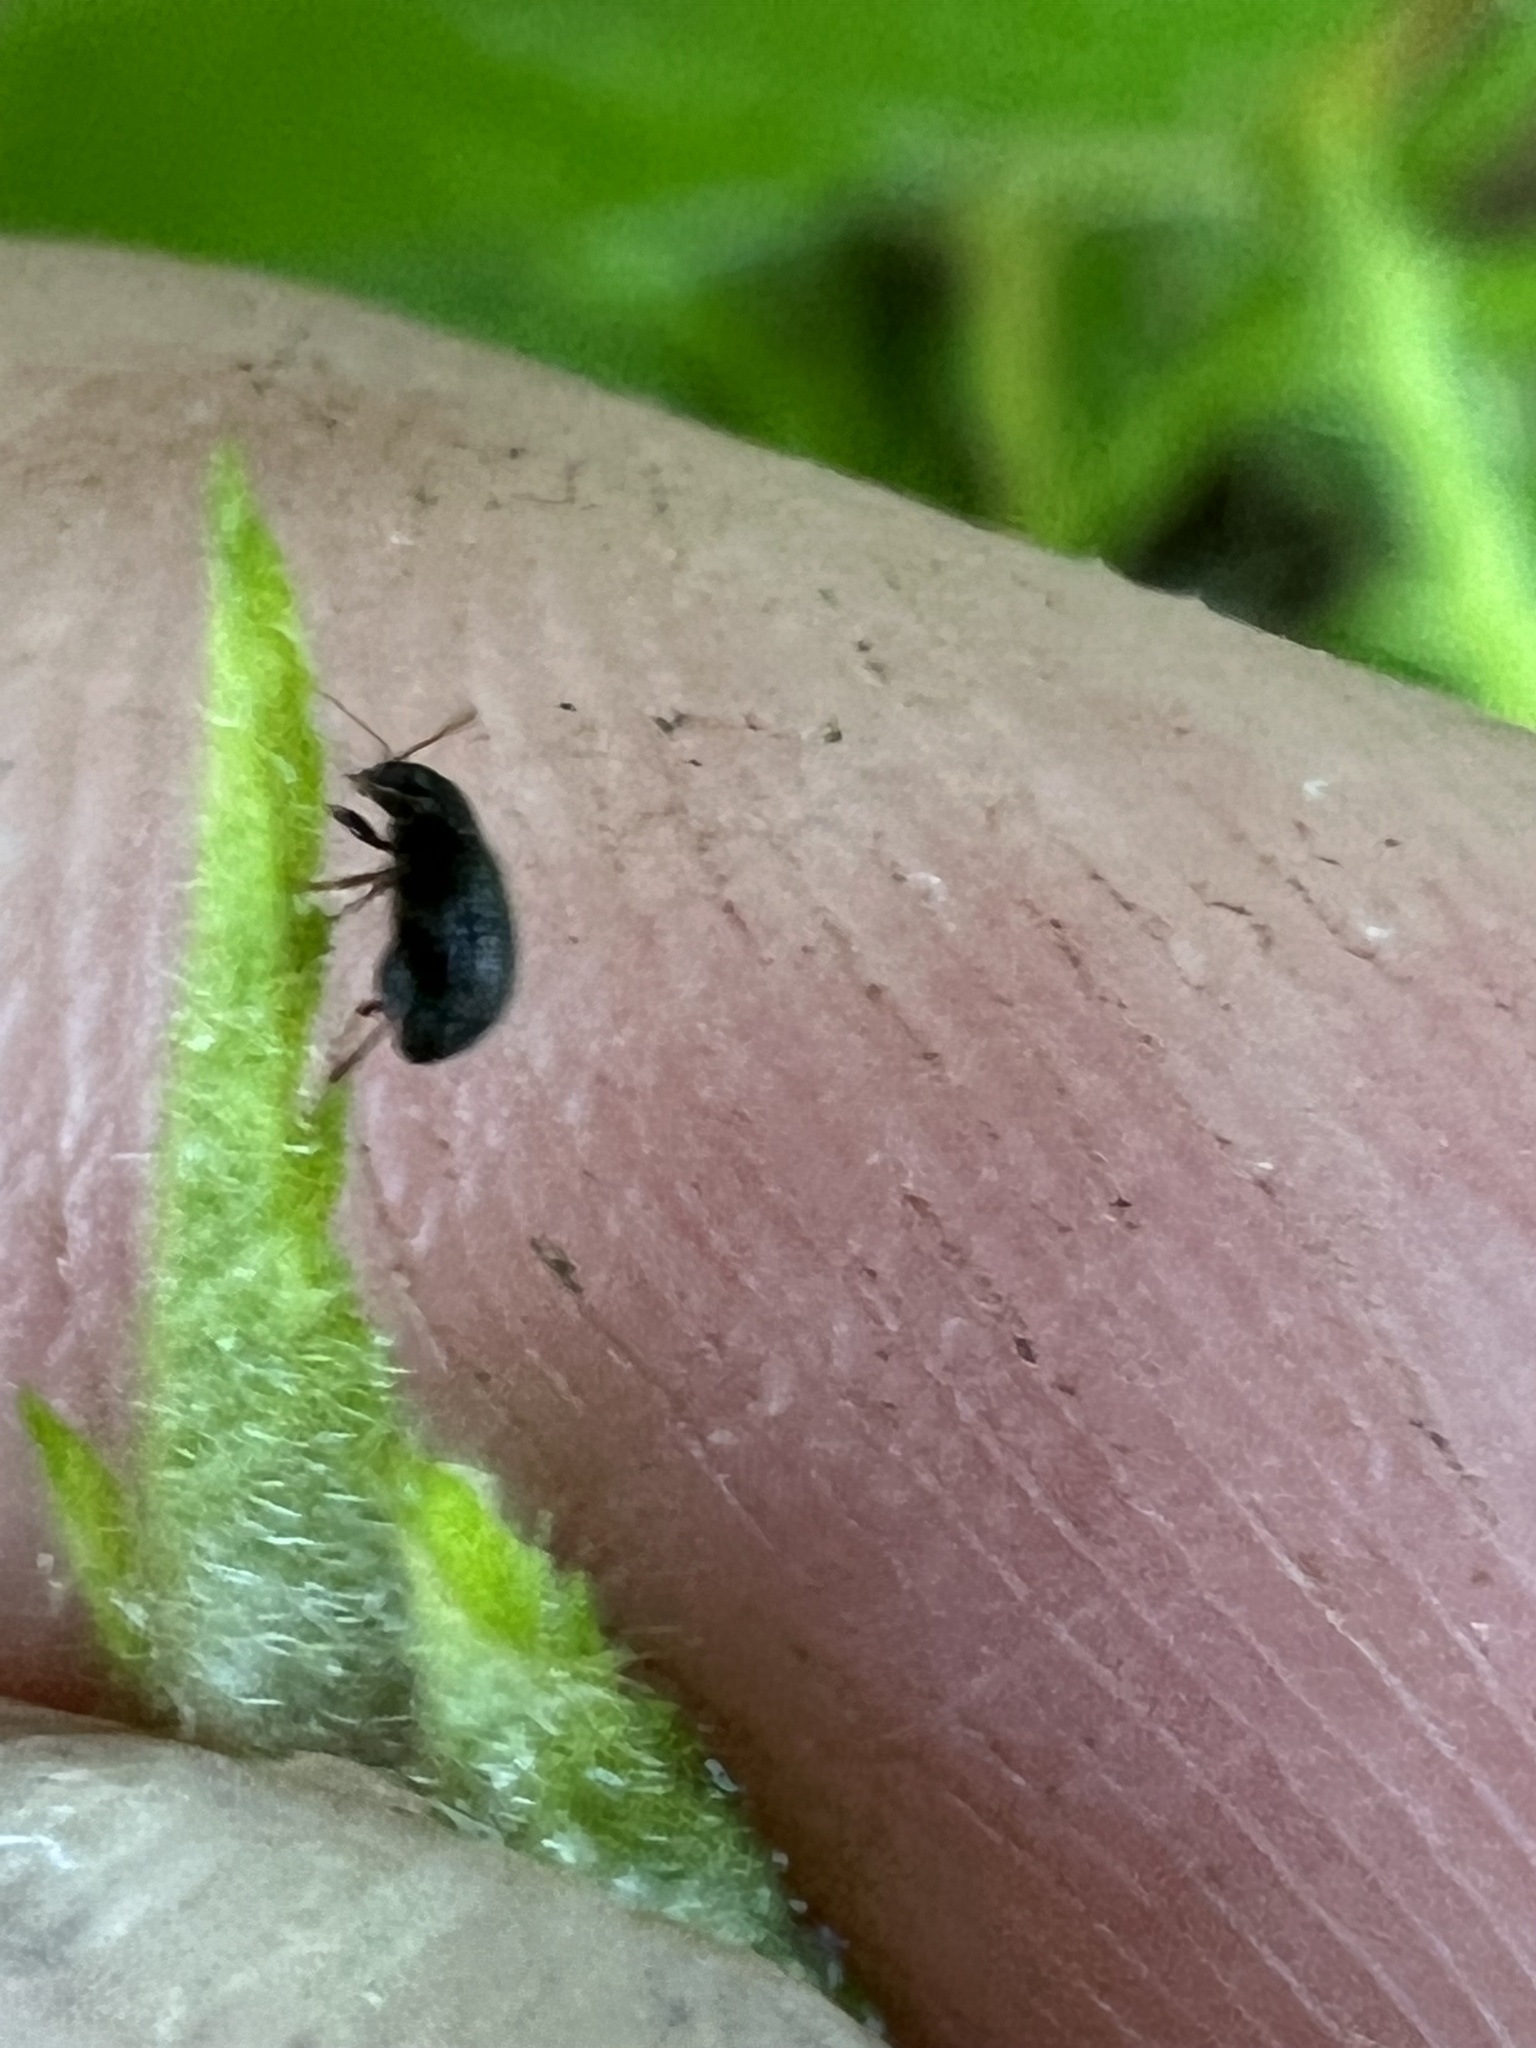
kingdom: Animalia
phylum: Arthropoda
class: Insecta
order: Coleoptera
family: Chrysomelidae
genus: Epitrix
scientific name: Epitrix fuscula
